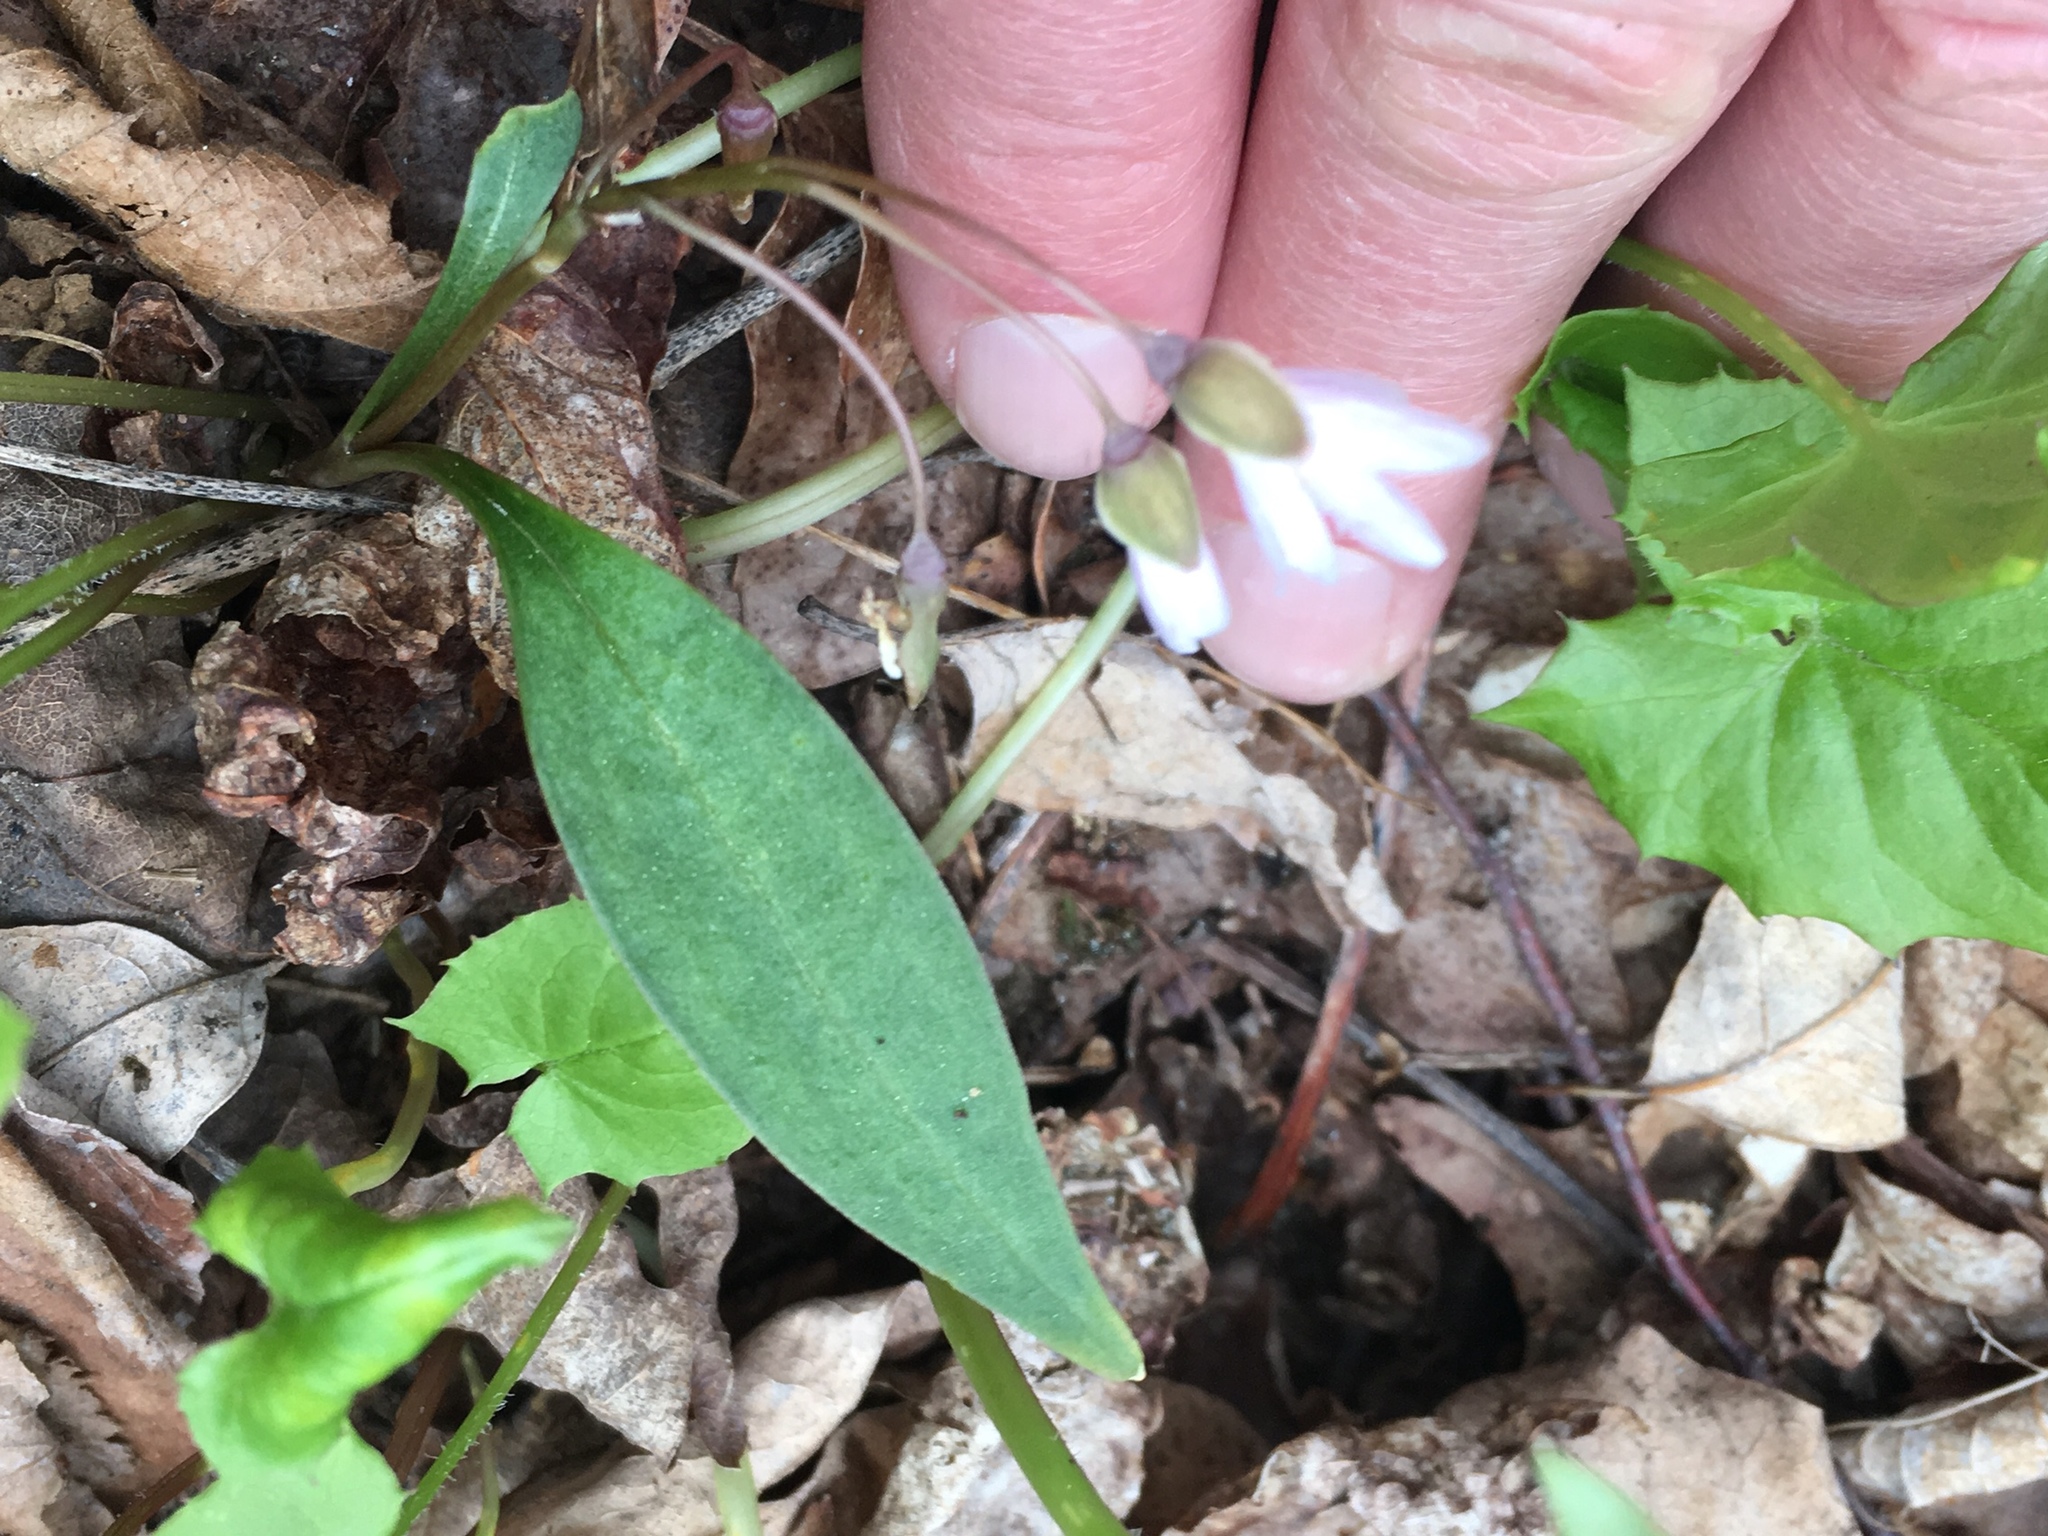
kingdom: Plantae
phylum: Tracheophyta
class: Magnoliopsida
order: Caryophyllales
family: Montiaceae
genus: Claytonia
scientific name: Claytonia caroliniana
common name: Carolina spring beauty
